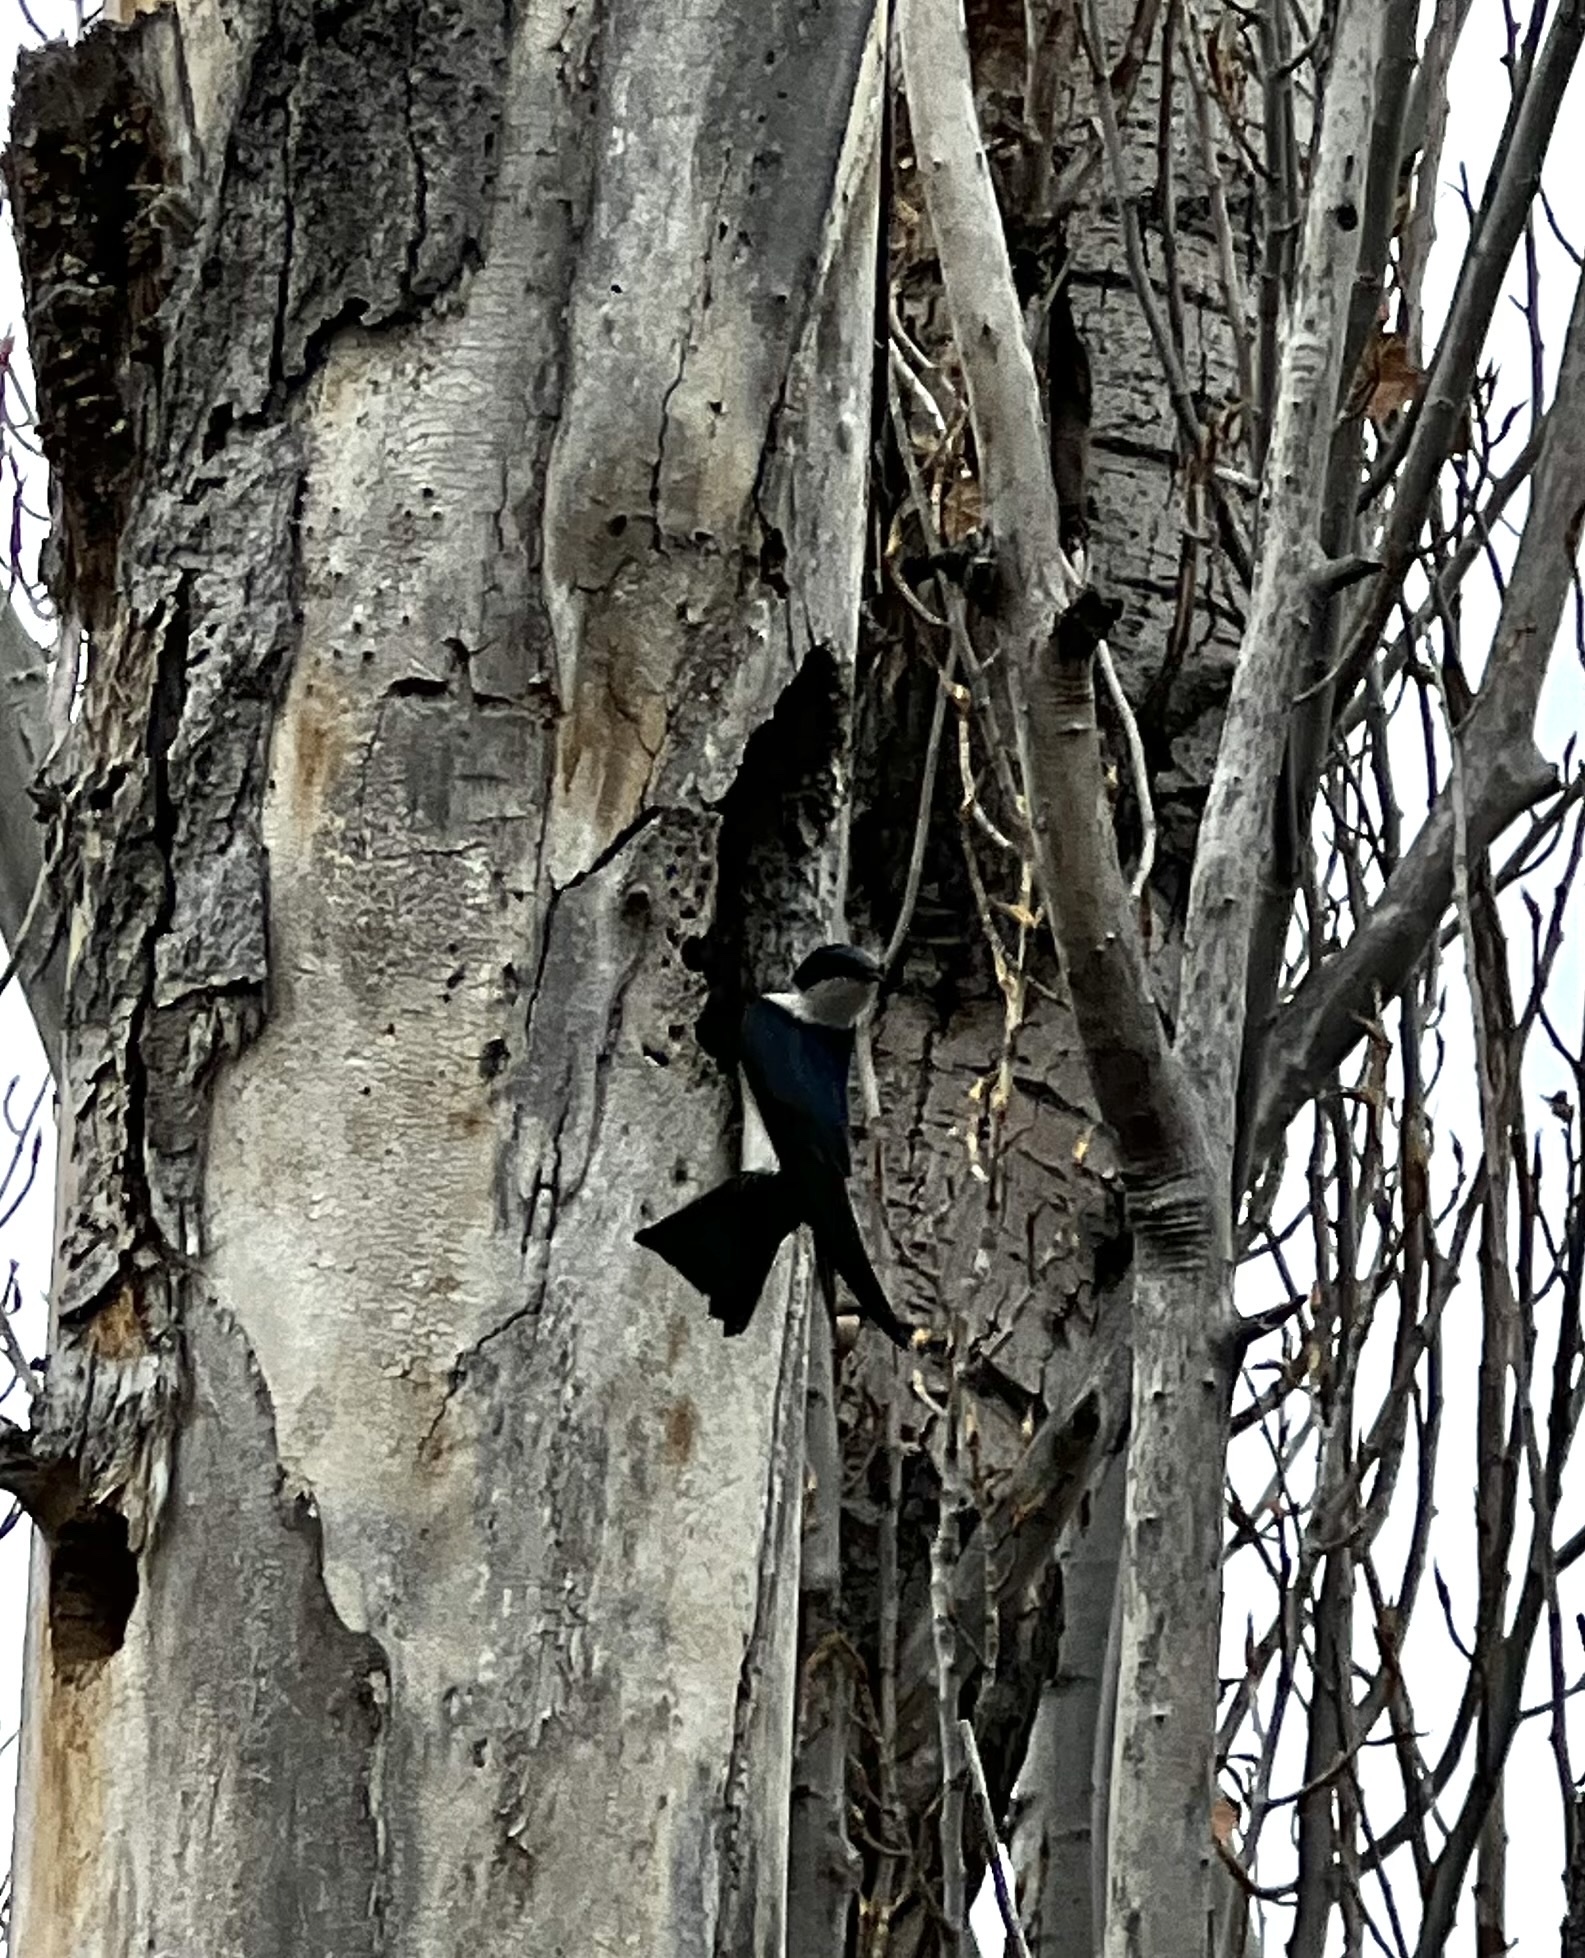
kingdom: Animalia
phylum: Chordata
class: Aves
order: Passeriformes
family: Hirundinidae
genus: Tachycineta
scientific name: Tachycineta bicolor
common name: Tree swallow
